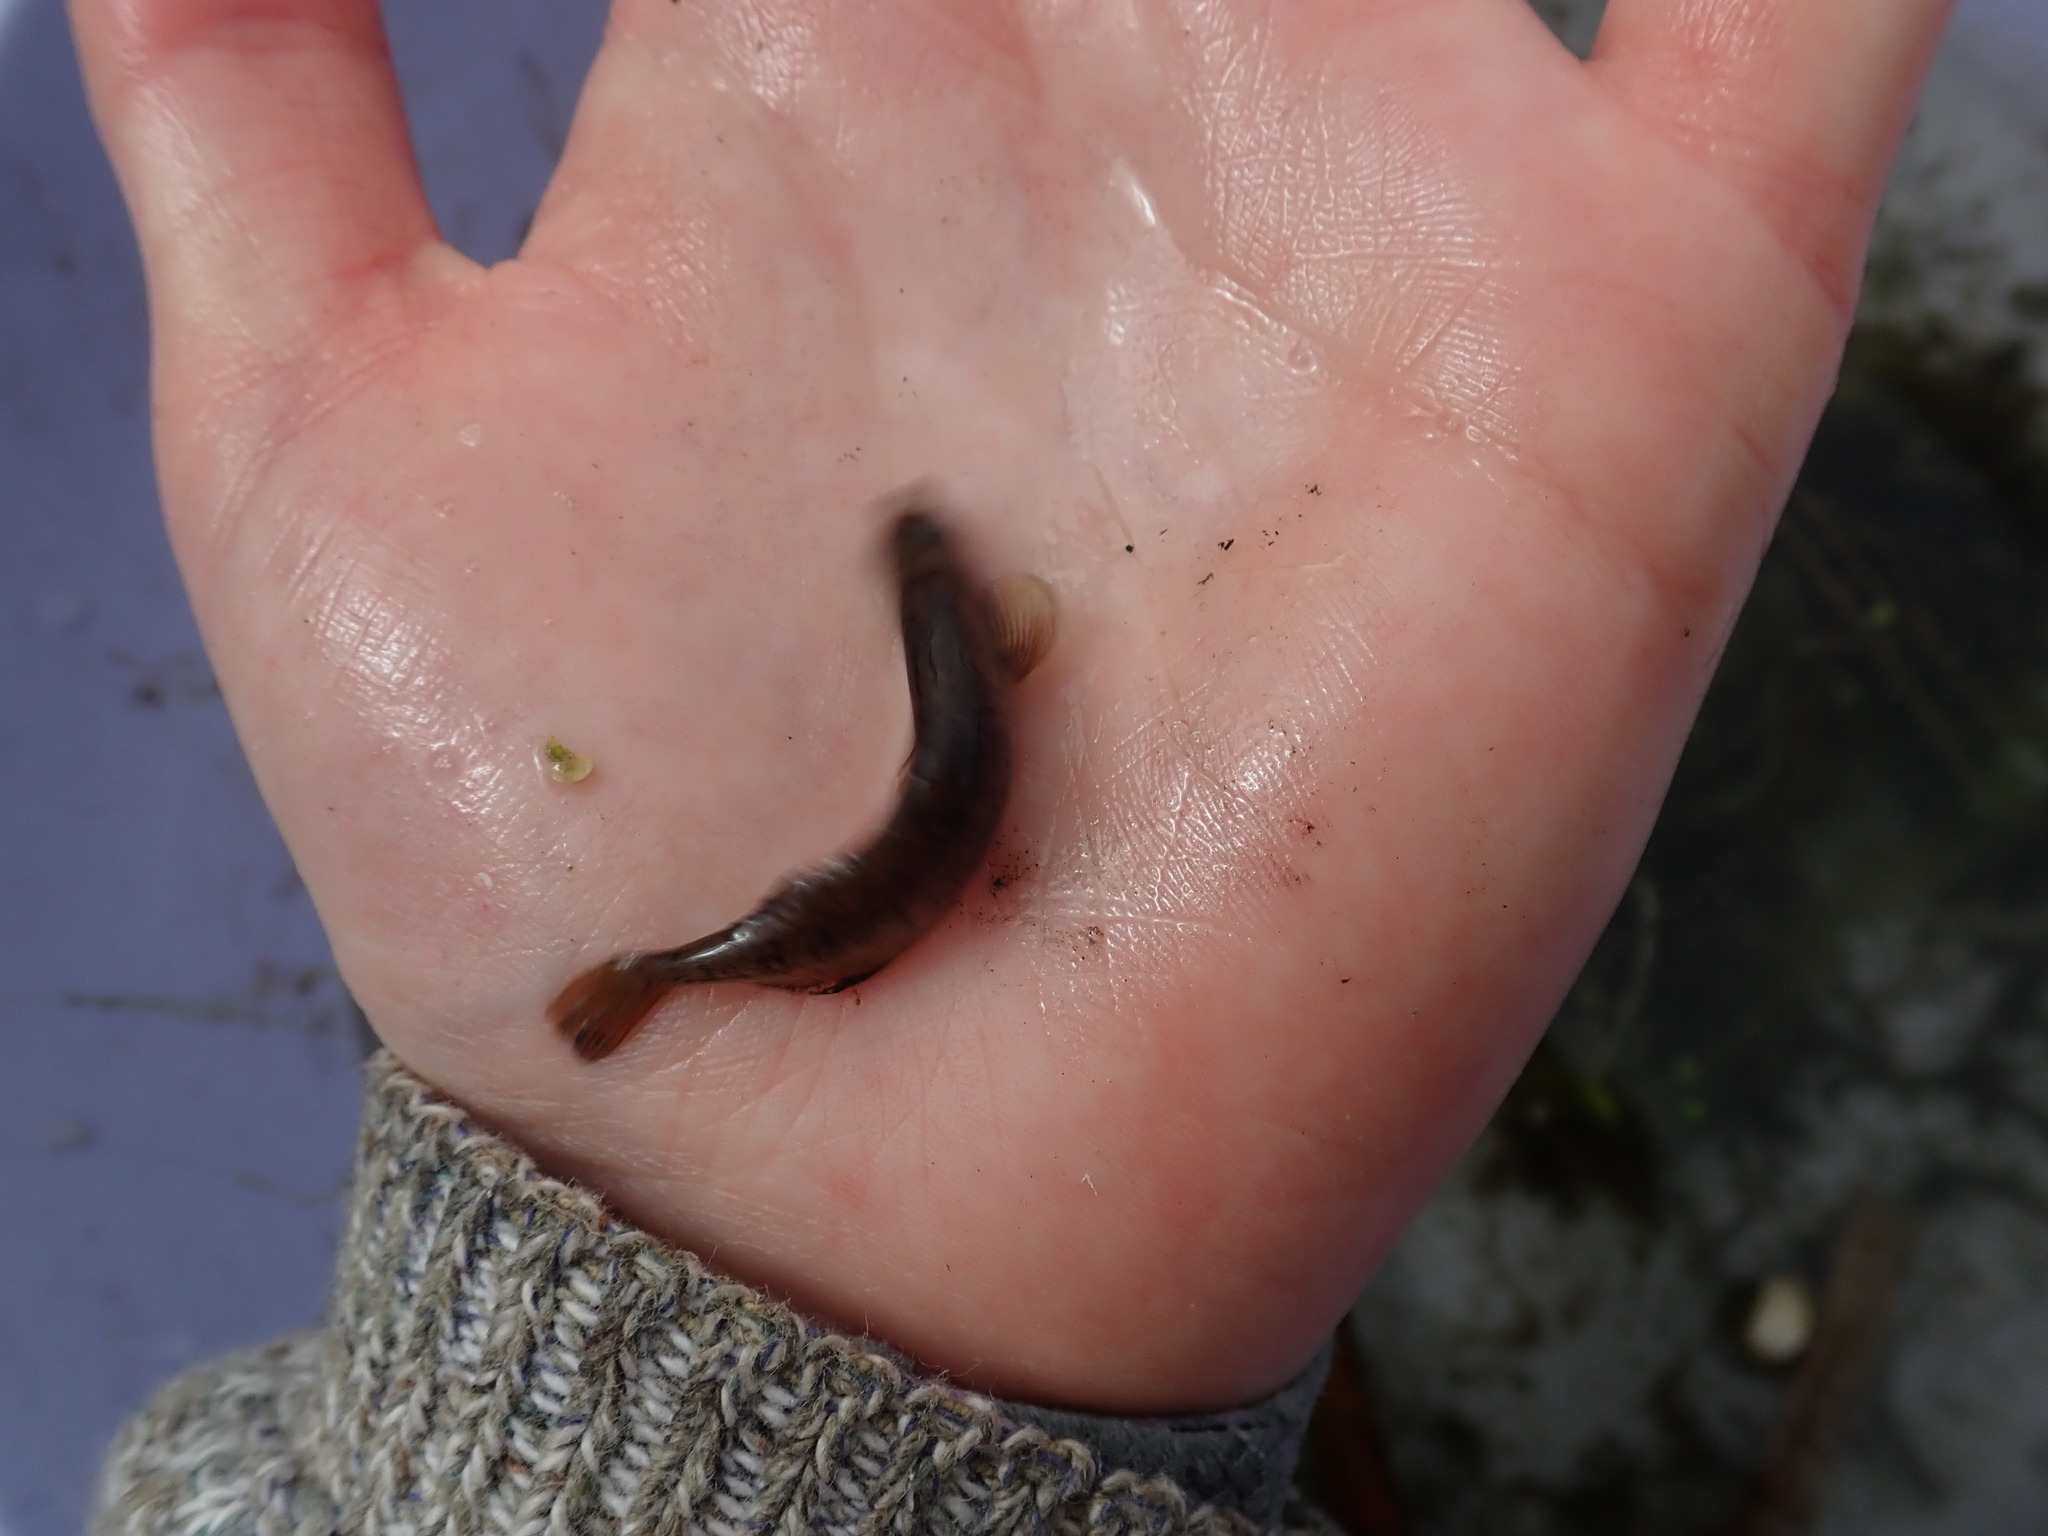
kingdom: Animalia
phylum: Chordata
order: Gasterosteiformes
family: Gasterosteidae
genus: Culaea
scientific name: Culaea inconstans
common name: Brook stickleback
